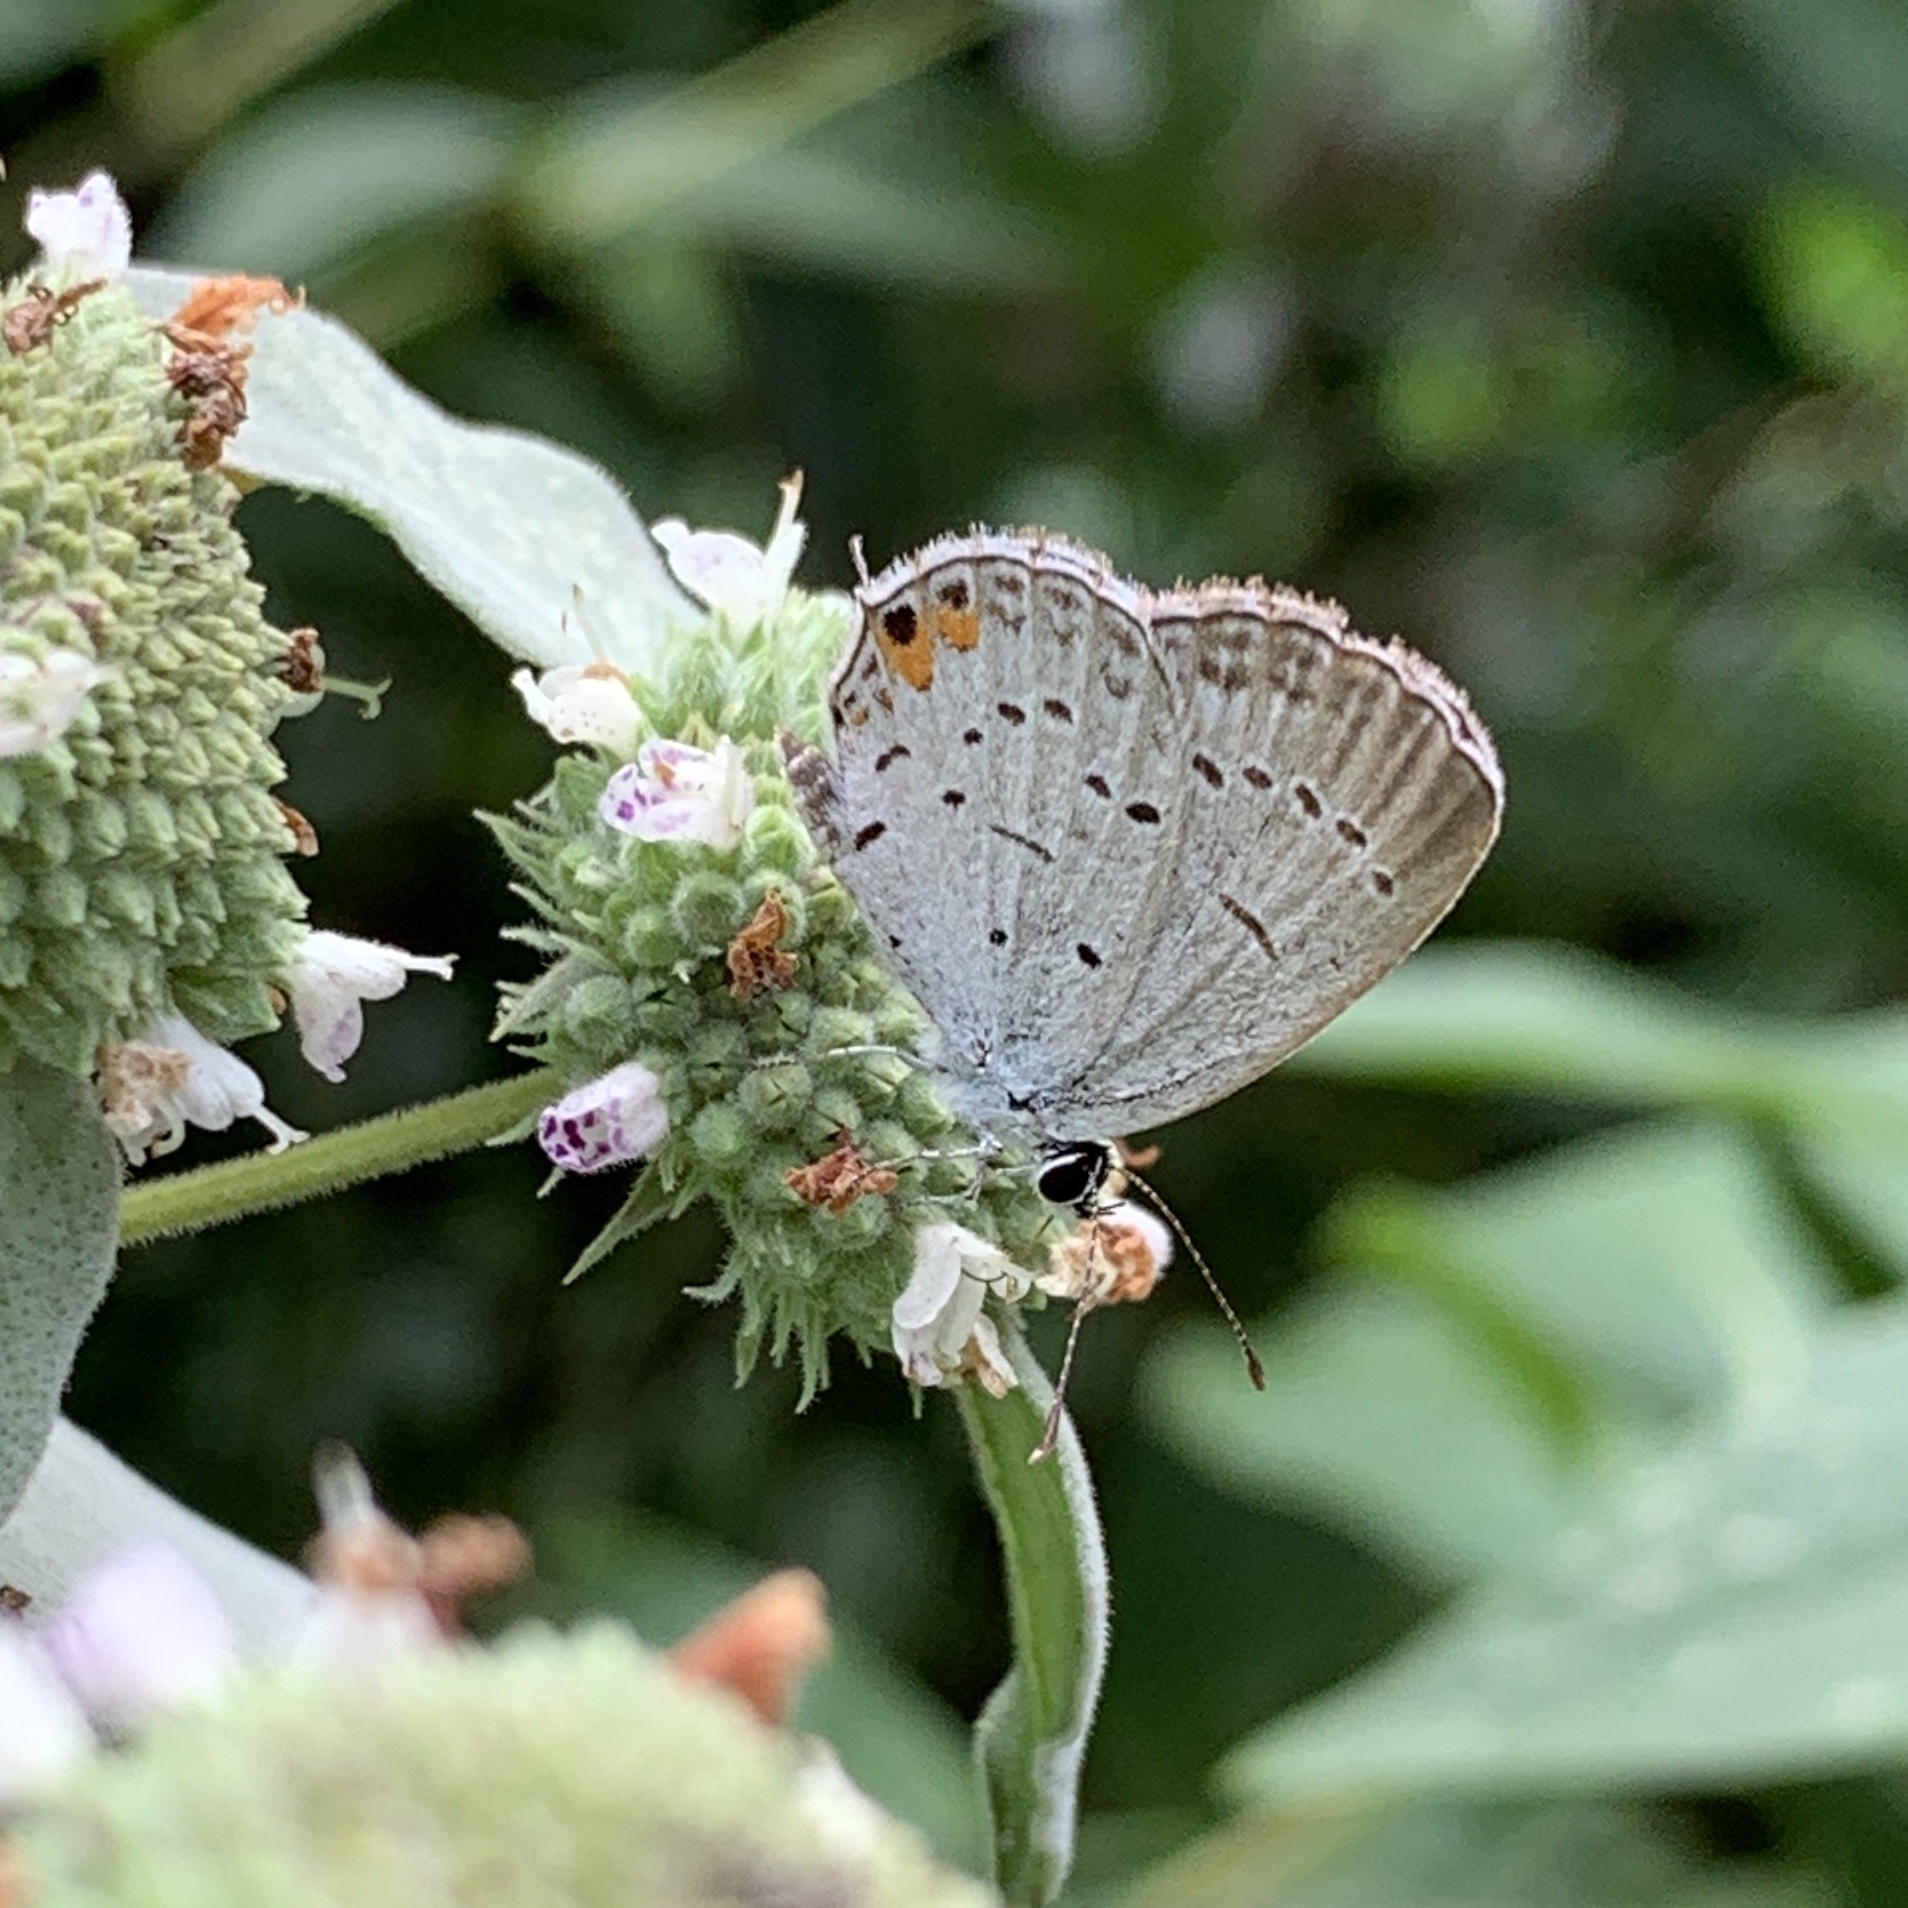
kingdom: Animalia
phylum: Arthropoda
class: Insecta
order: Lepidoptera
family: Lycaenidae
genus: Elkalyce
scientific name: Elkalyce comyntas
